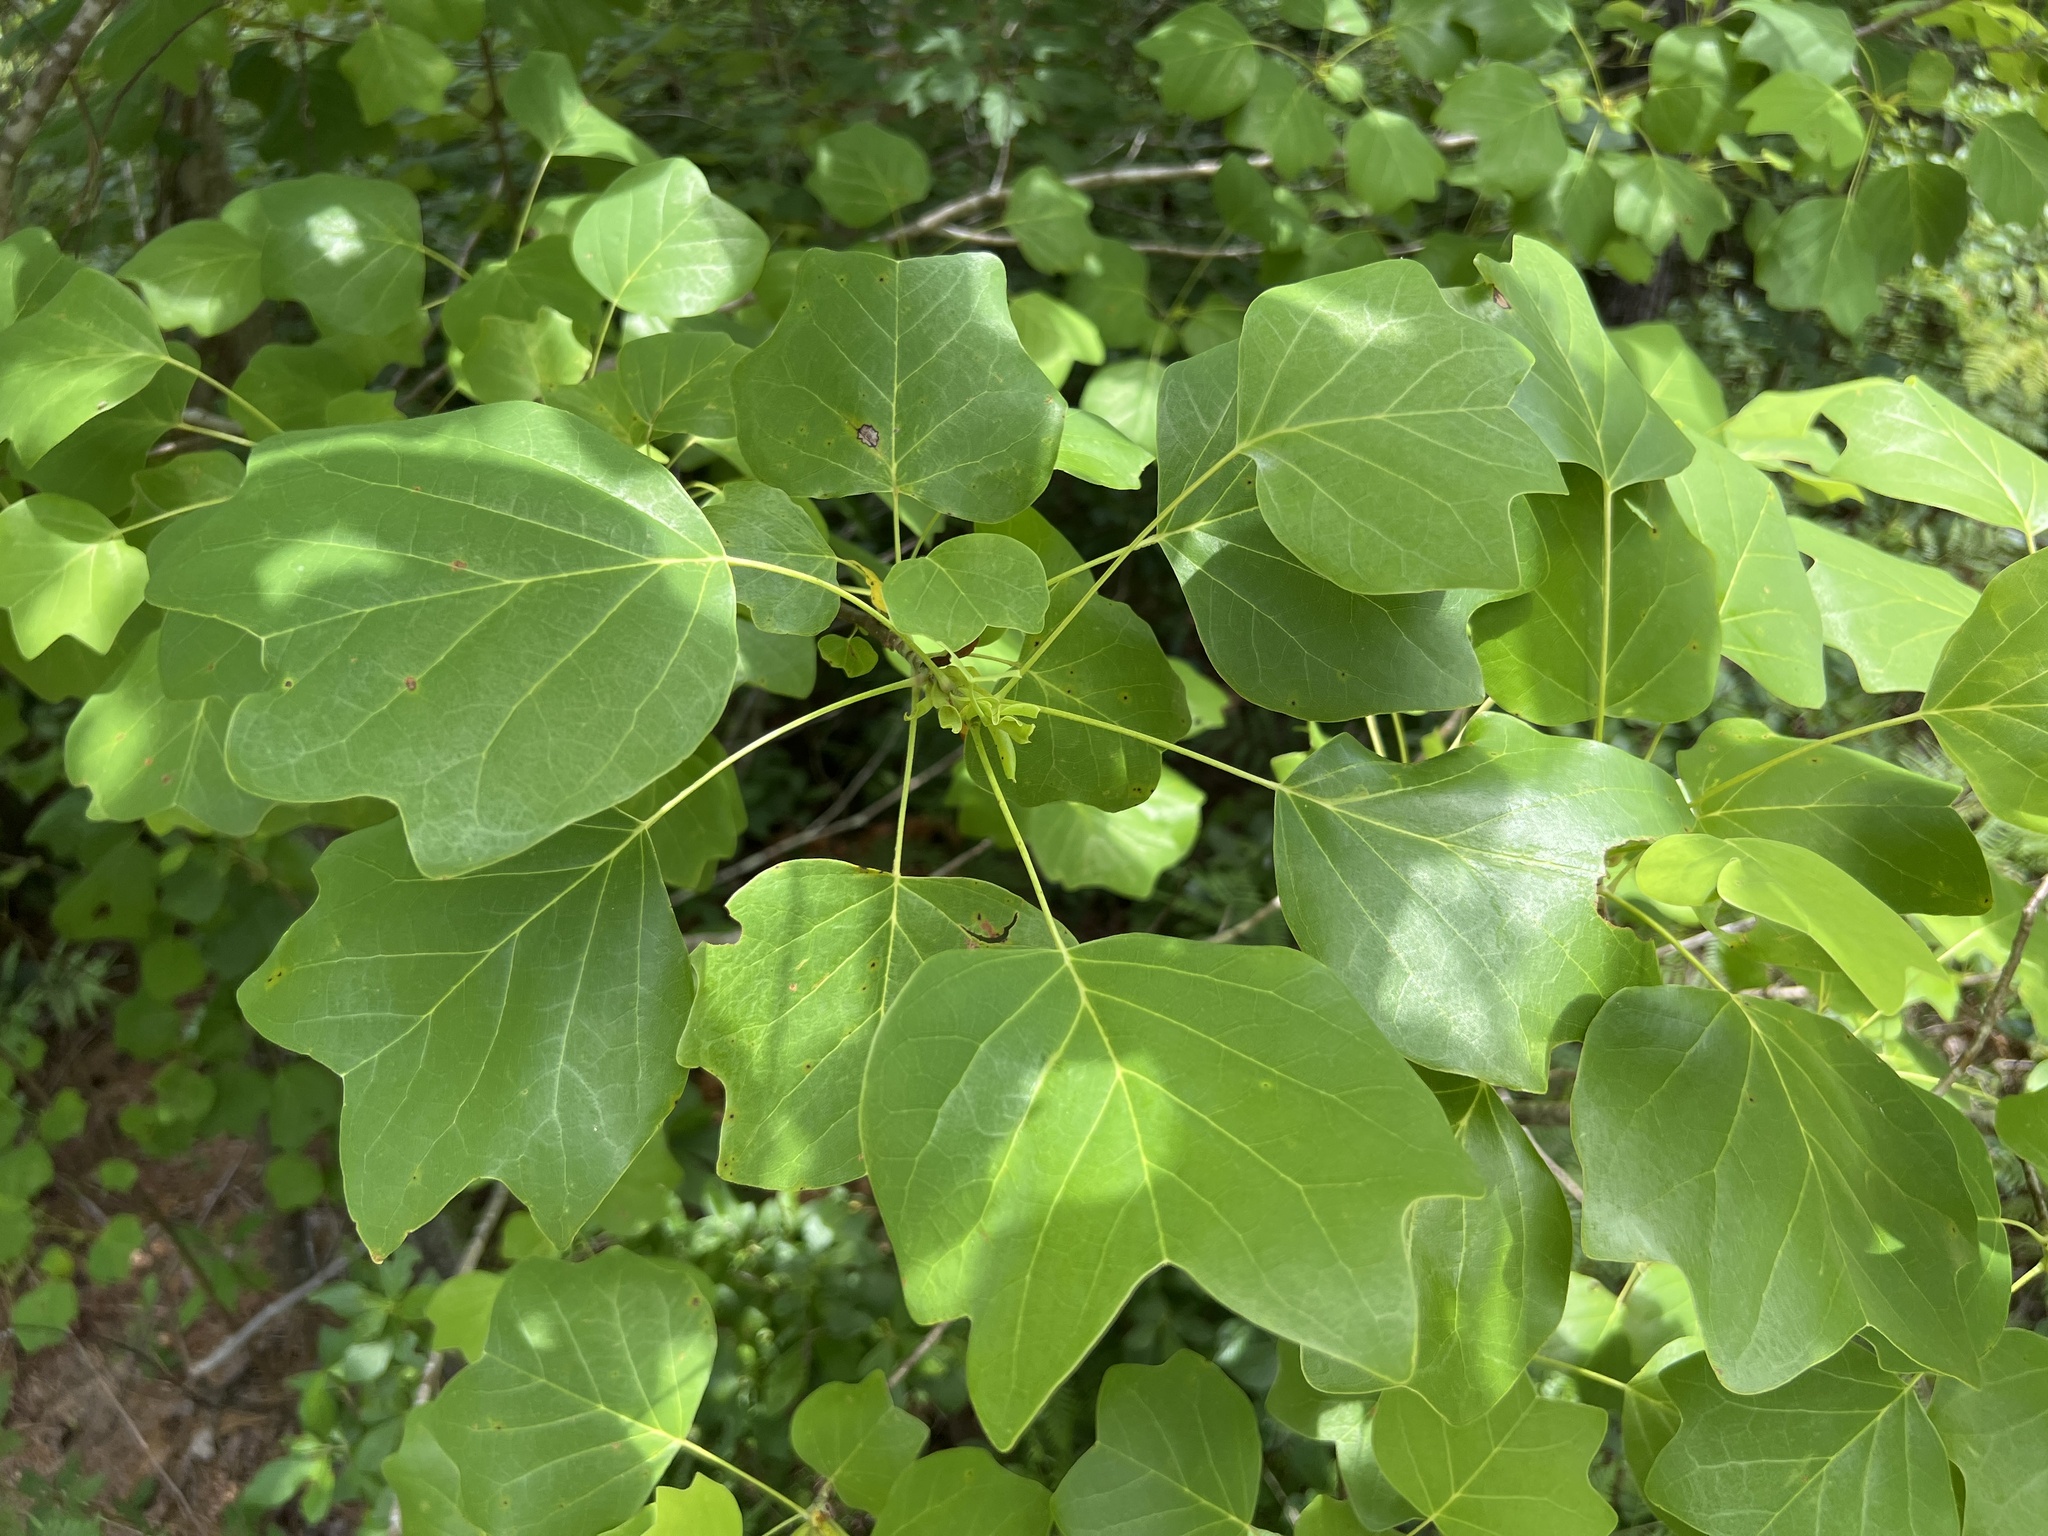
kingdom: Plantae
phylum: Tracheophyta
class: Magnoliopsida
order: Magnoliales
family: Magnoliaceae
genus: Liriodendron
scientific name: Liriodendron tulipifera
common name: Tulip tree
